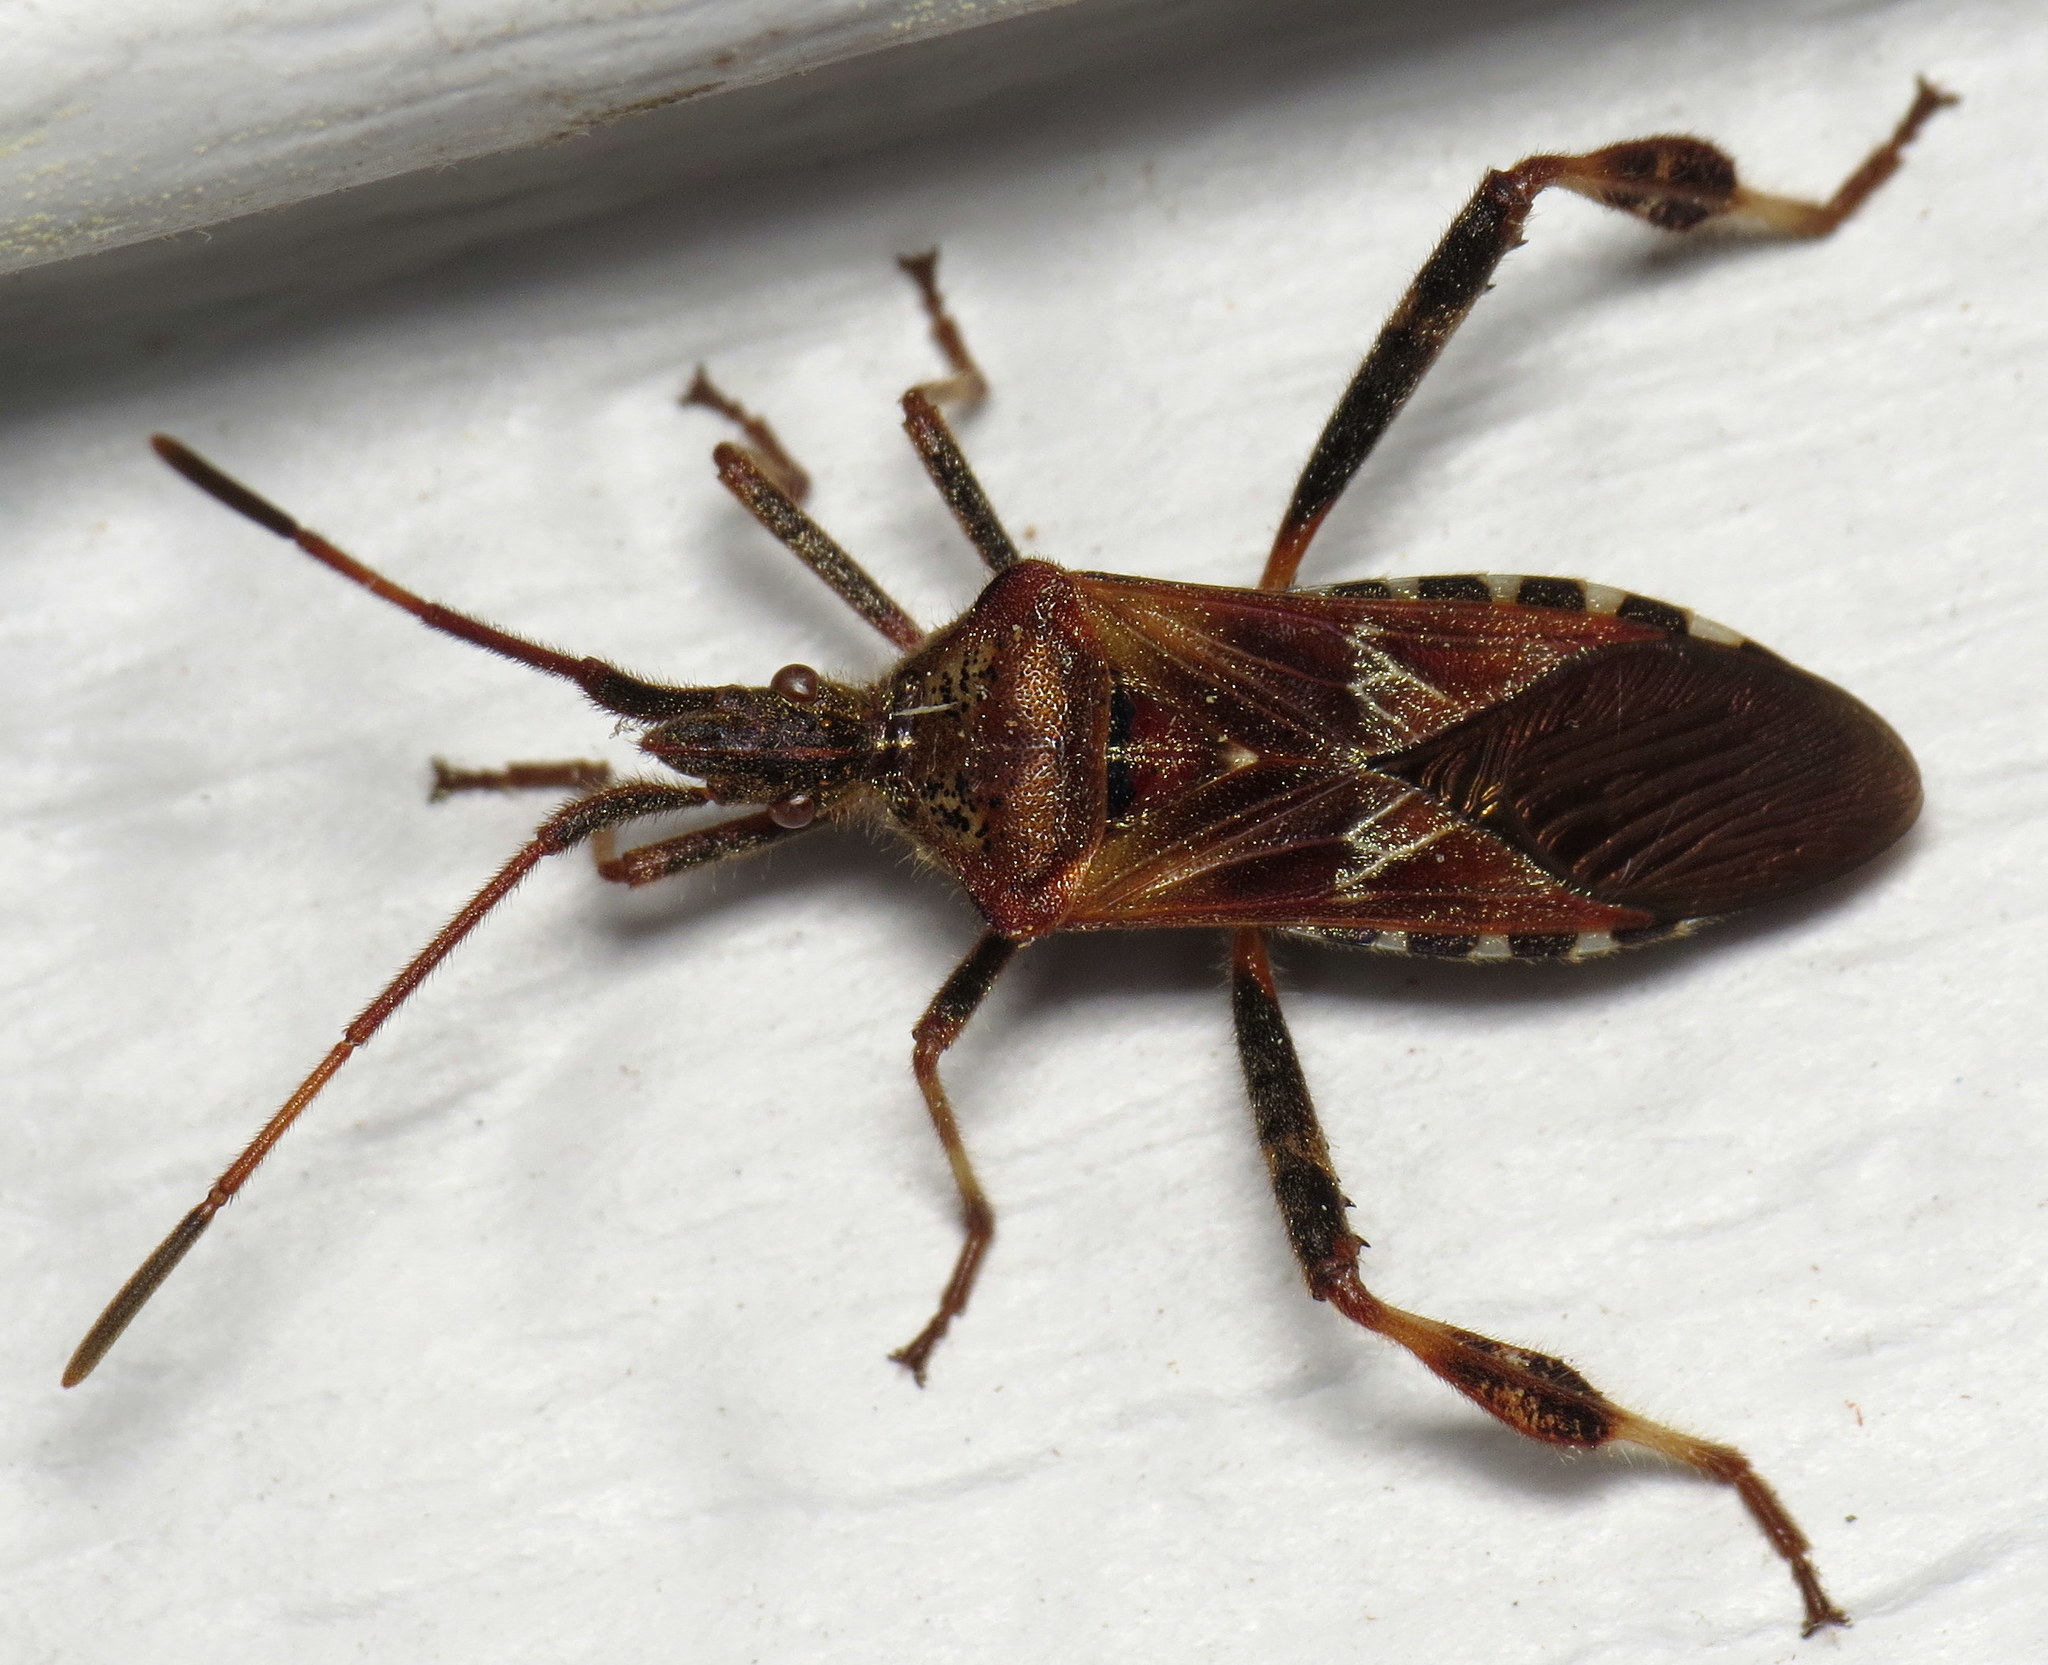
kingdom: Animalia
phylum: Arthropoda
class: Insecta
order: Hemiptera
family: Coreidae
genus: Leptoglossus
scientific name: Leptoglossus occidentalis
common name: Western conifer-seed bug
